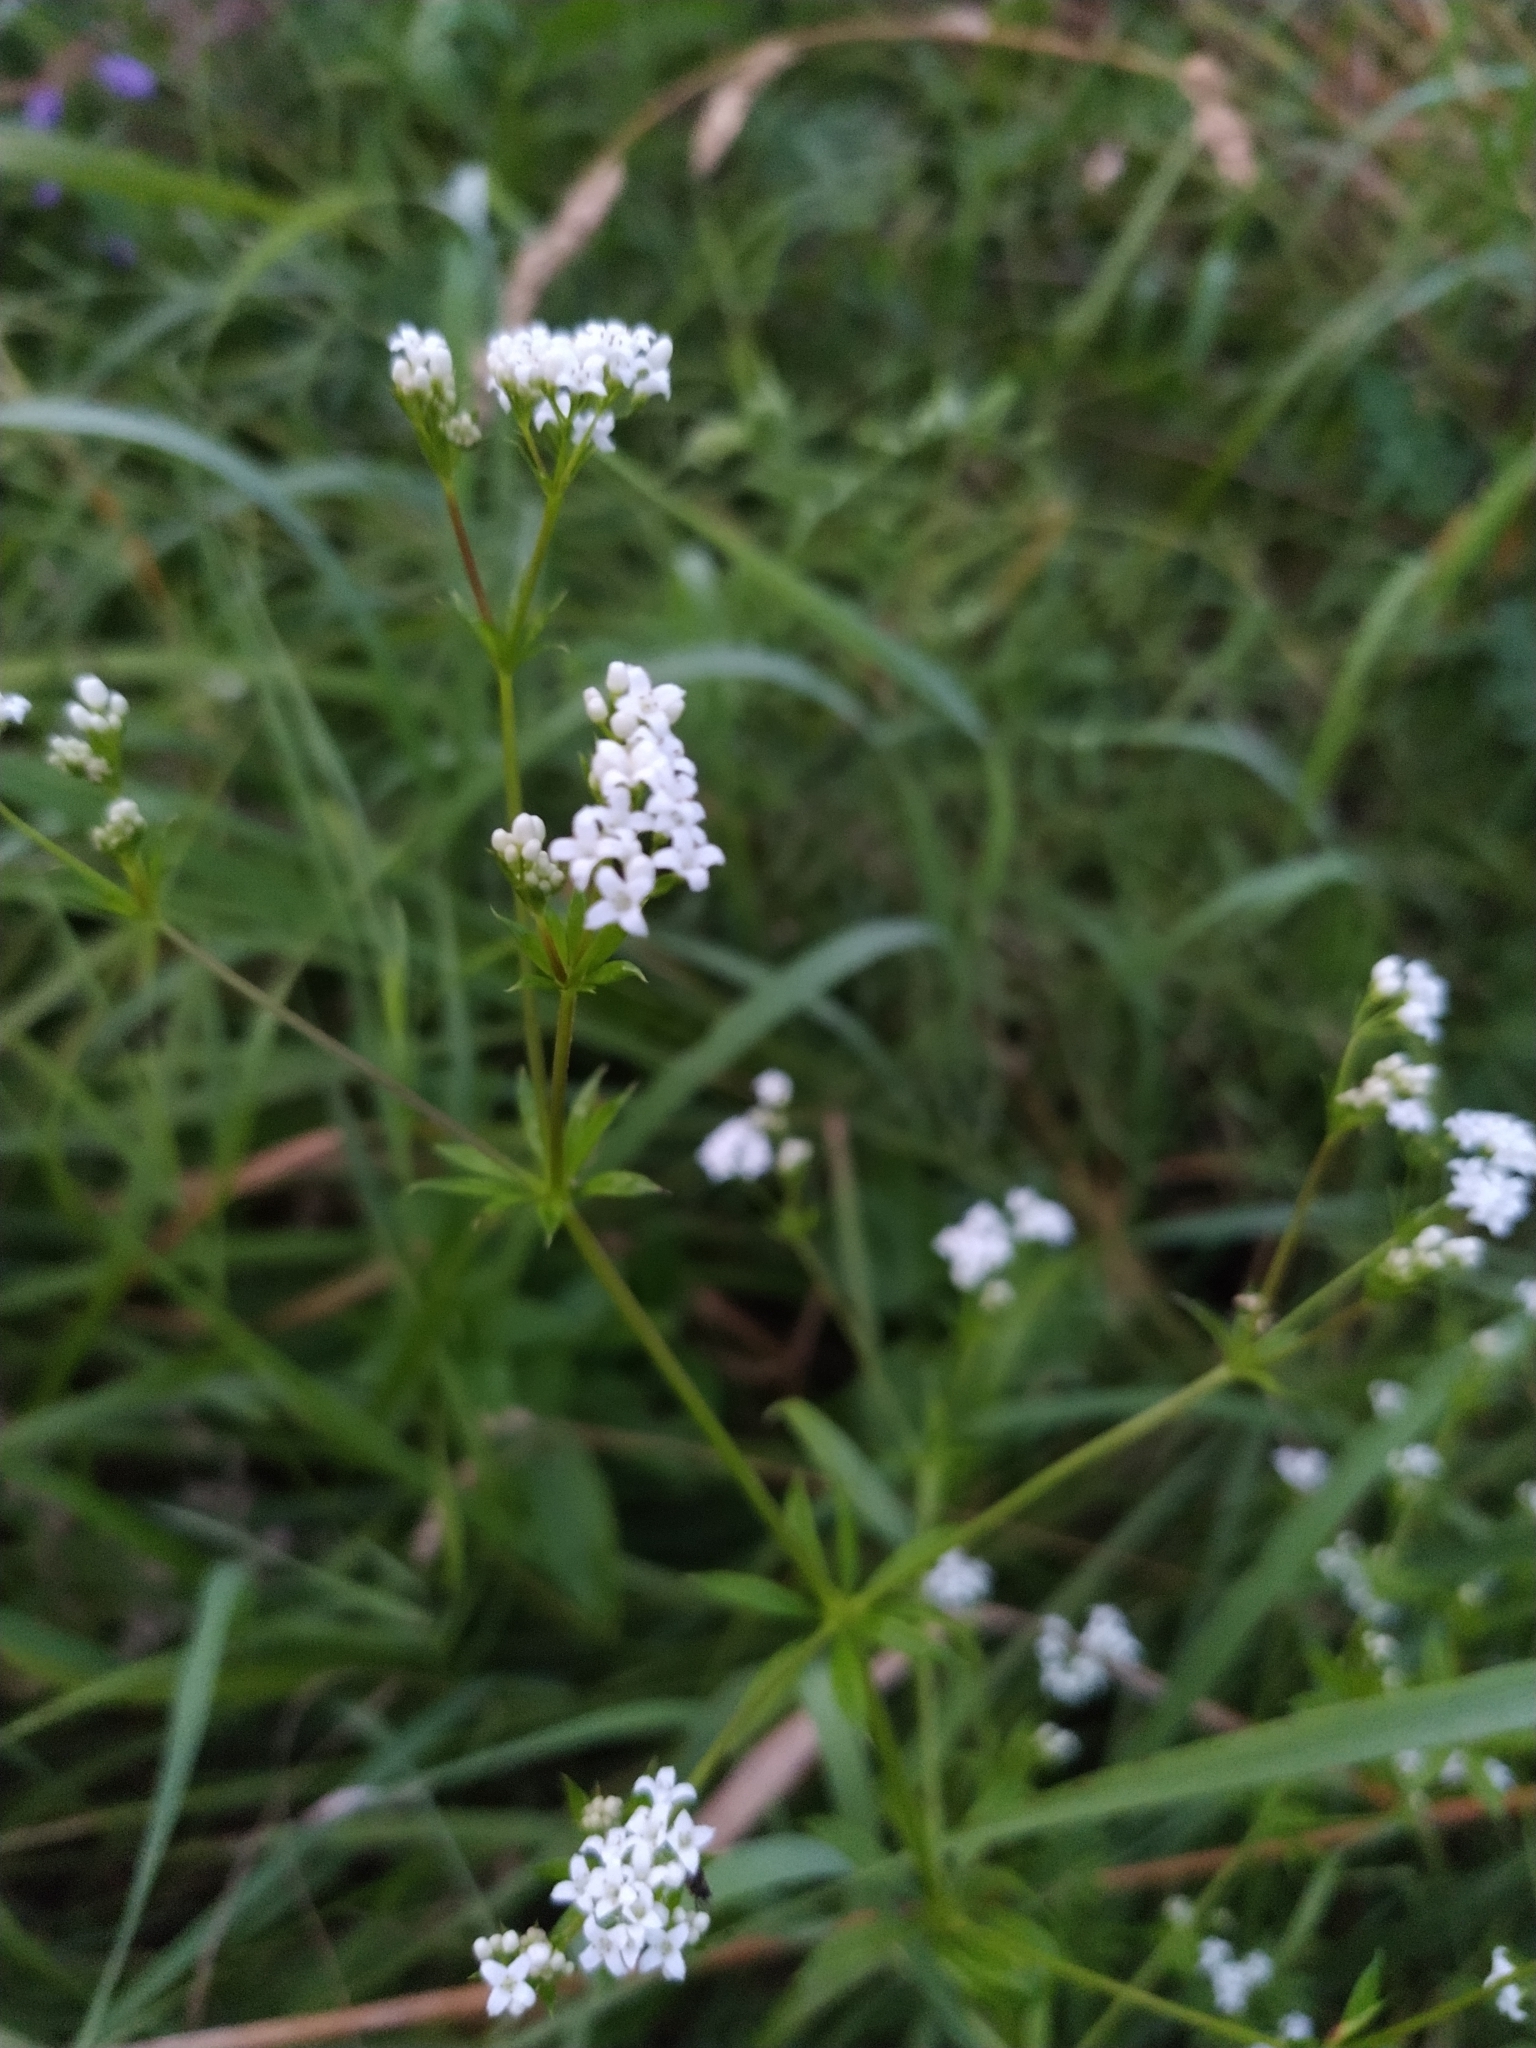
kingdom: Plantae
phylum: Tracheophyta
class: Magnoliopsida
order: Gentianales
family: Rubiaceae
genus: Galium
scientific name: Galium rivale
